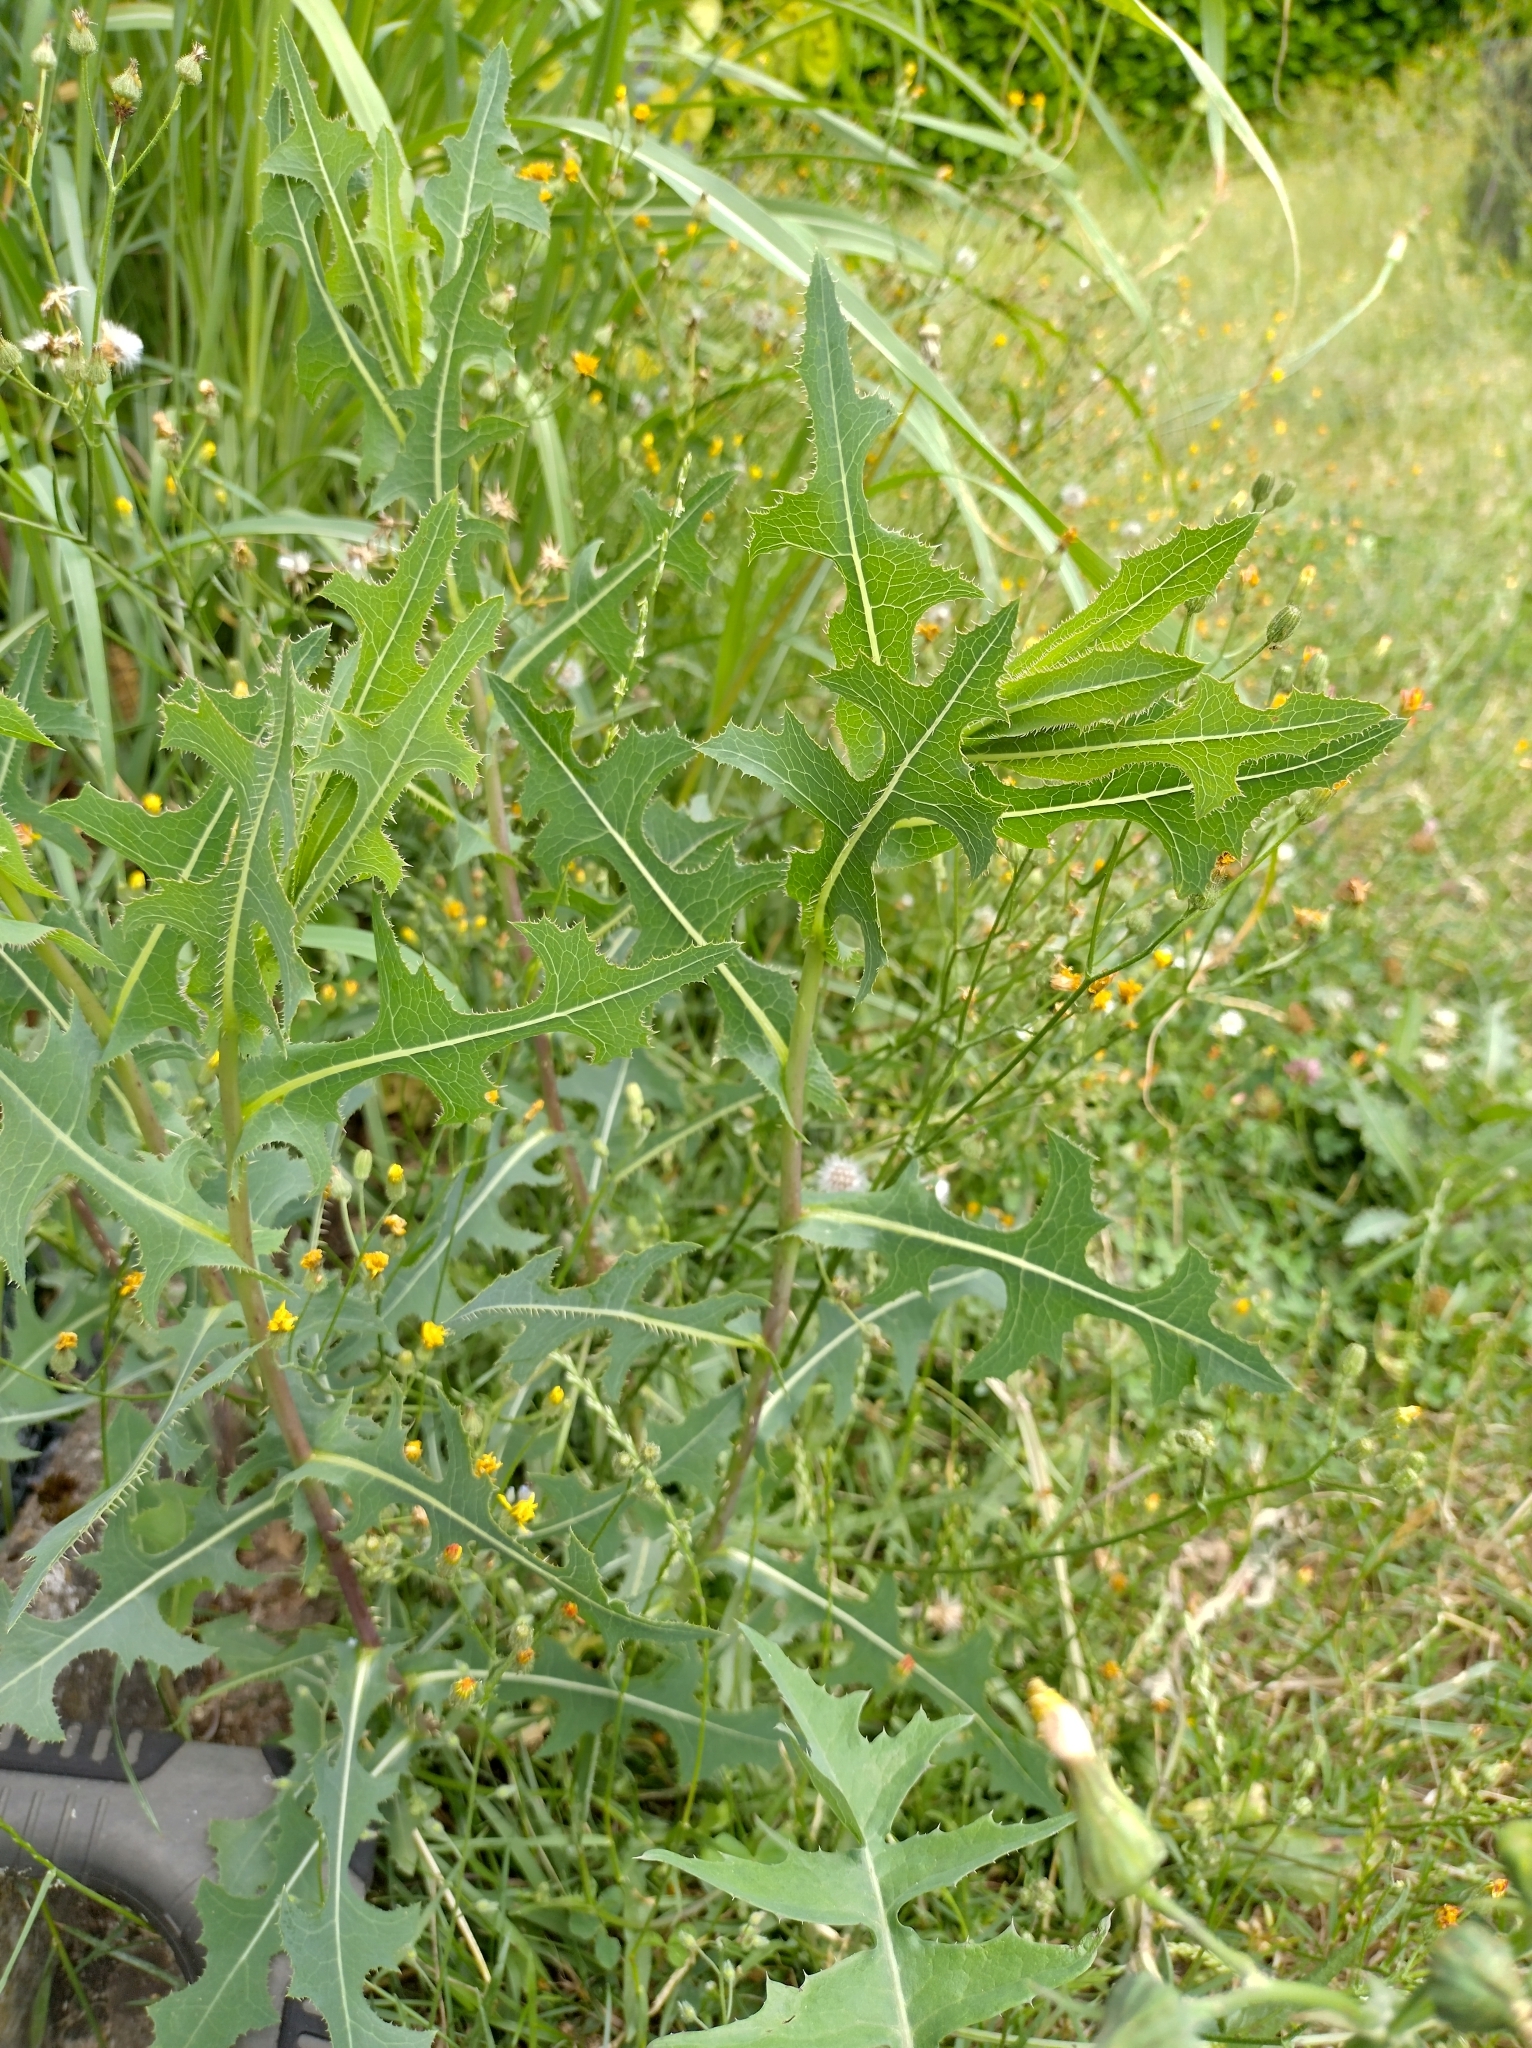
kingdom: Plantae
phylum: Tracheophyta
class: Magnoliopsida
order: Asterales
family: Asteraceae
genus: Lactuca
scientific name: Lactuca serriola
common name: Prickly lettuce
